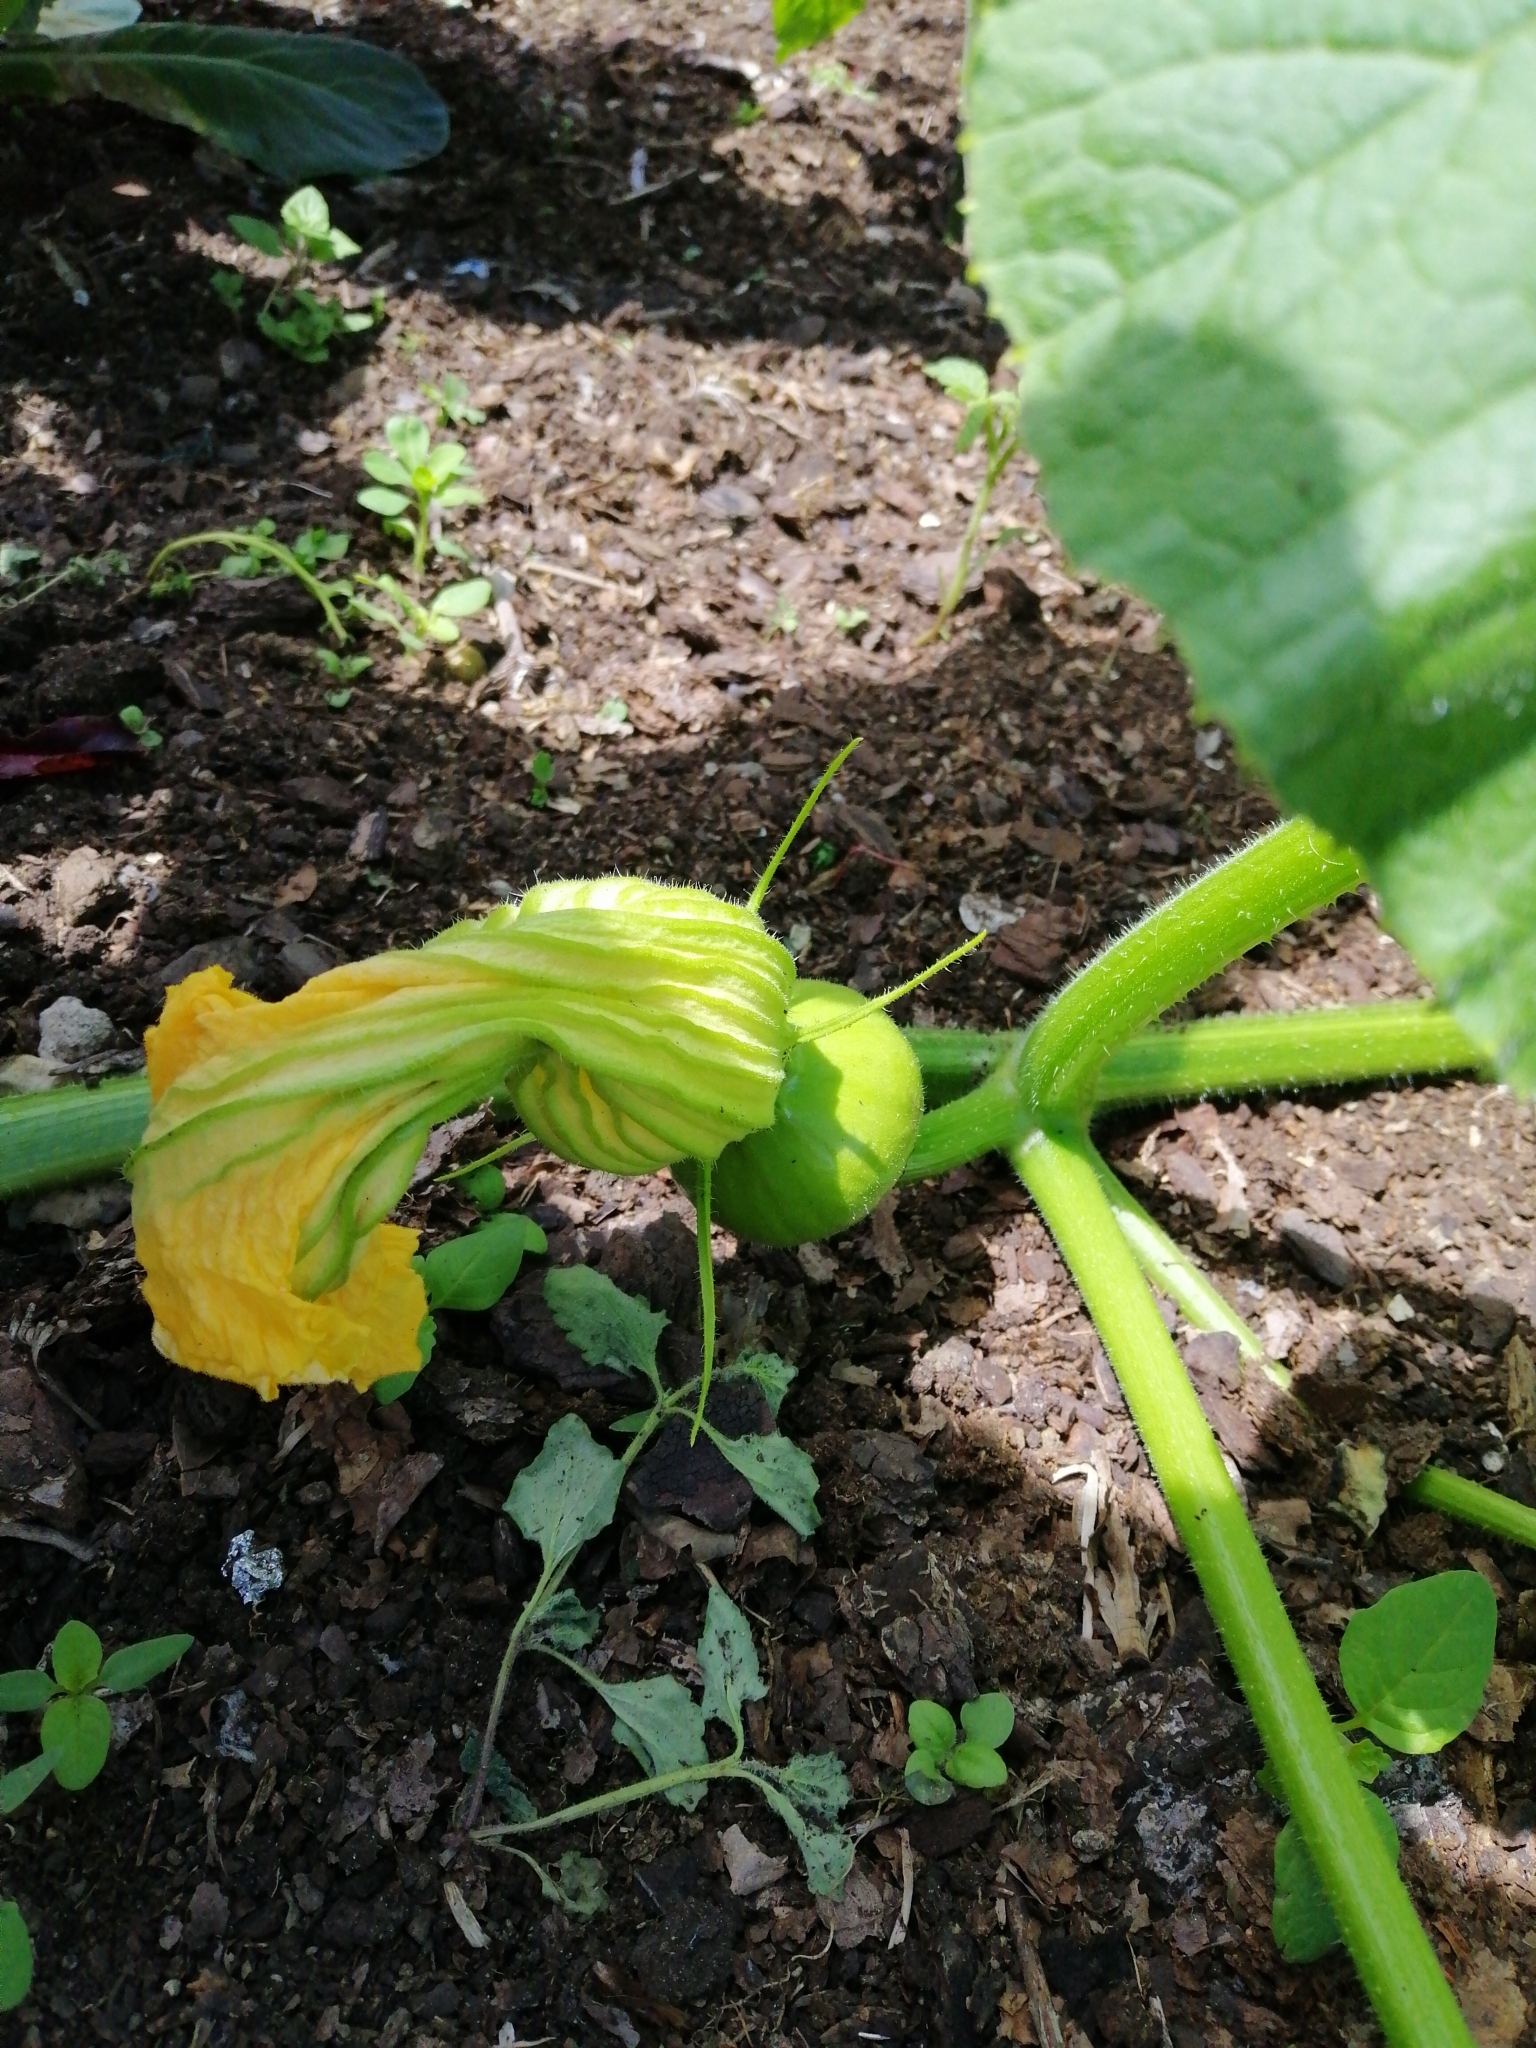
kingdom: Plantae
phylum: Tracheophyta
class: Magnoliopsida
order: Cucurbitales
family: Cucurbitaceae
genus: Cucurbita
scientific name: Cucurbita maxima
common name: Pumpkin
